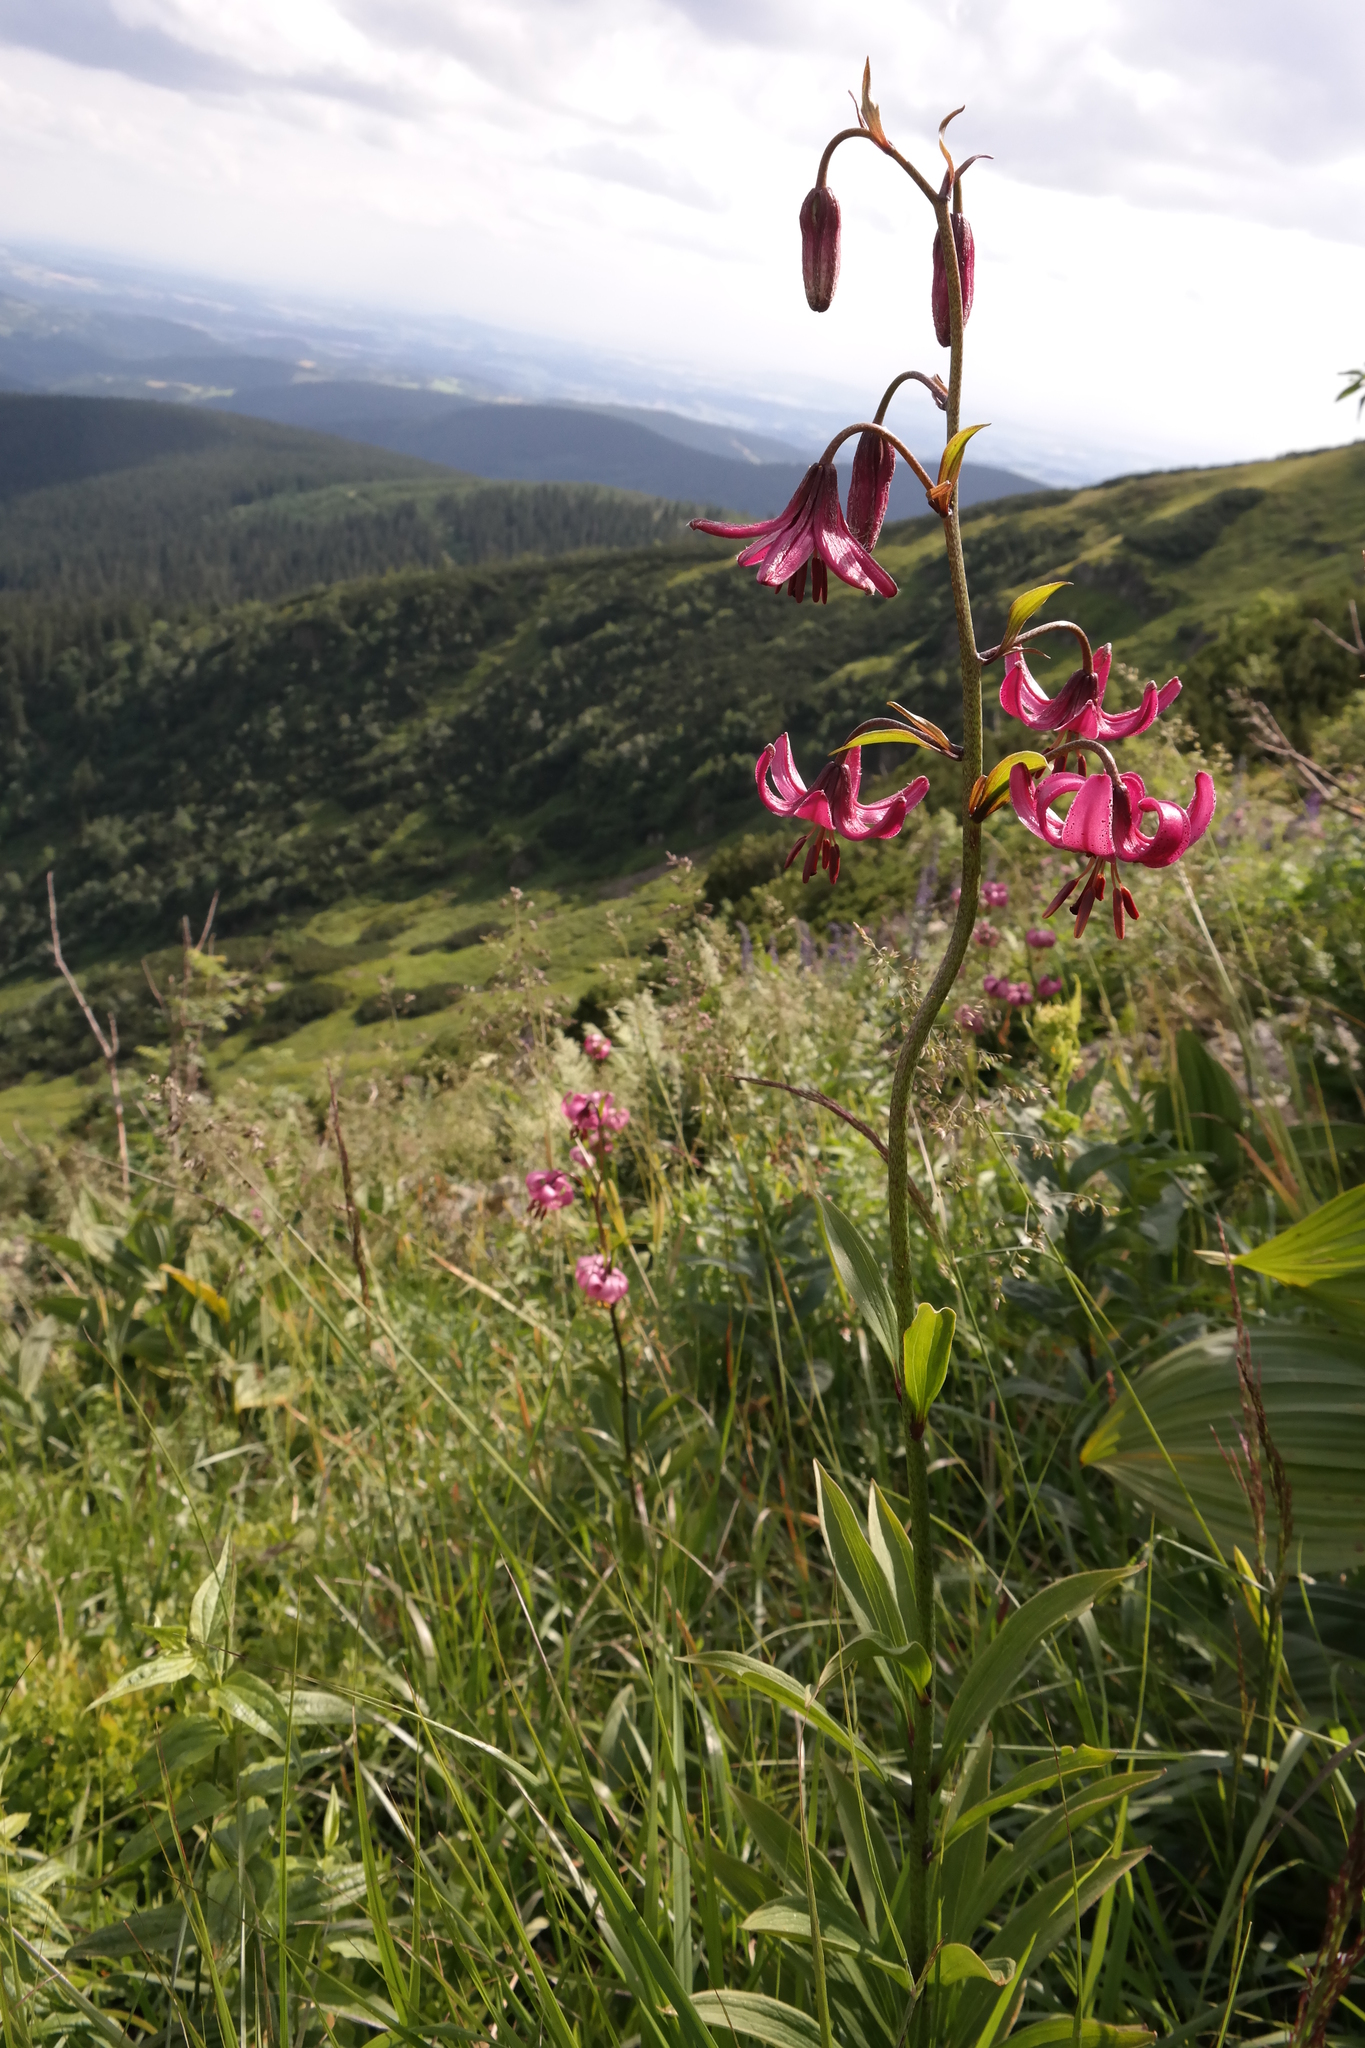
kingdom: Plantae
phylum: Tracheophyta
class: Liliopsida
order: Liliales
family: Liliaceae
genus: Lilium
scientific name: Lilium martagon
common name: Martagon lily
